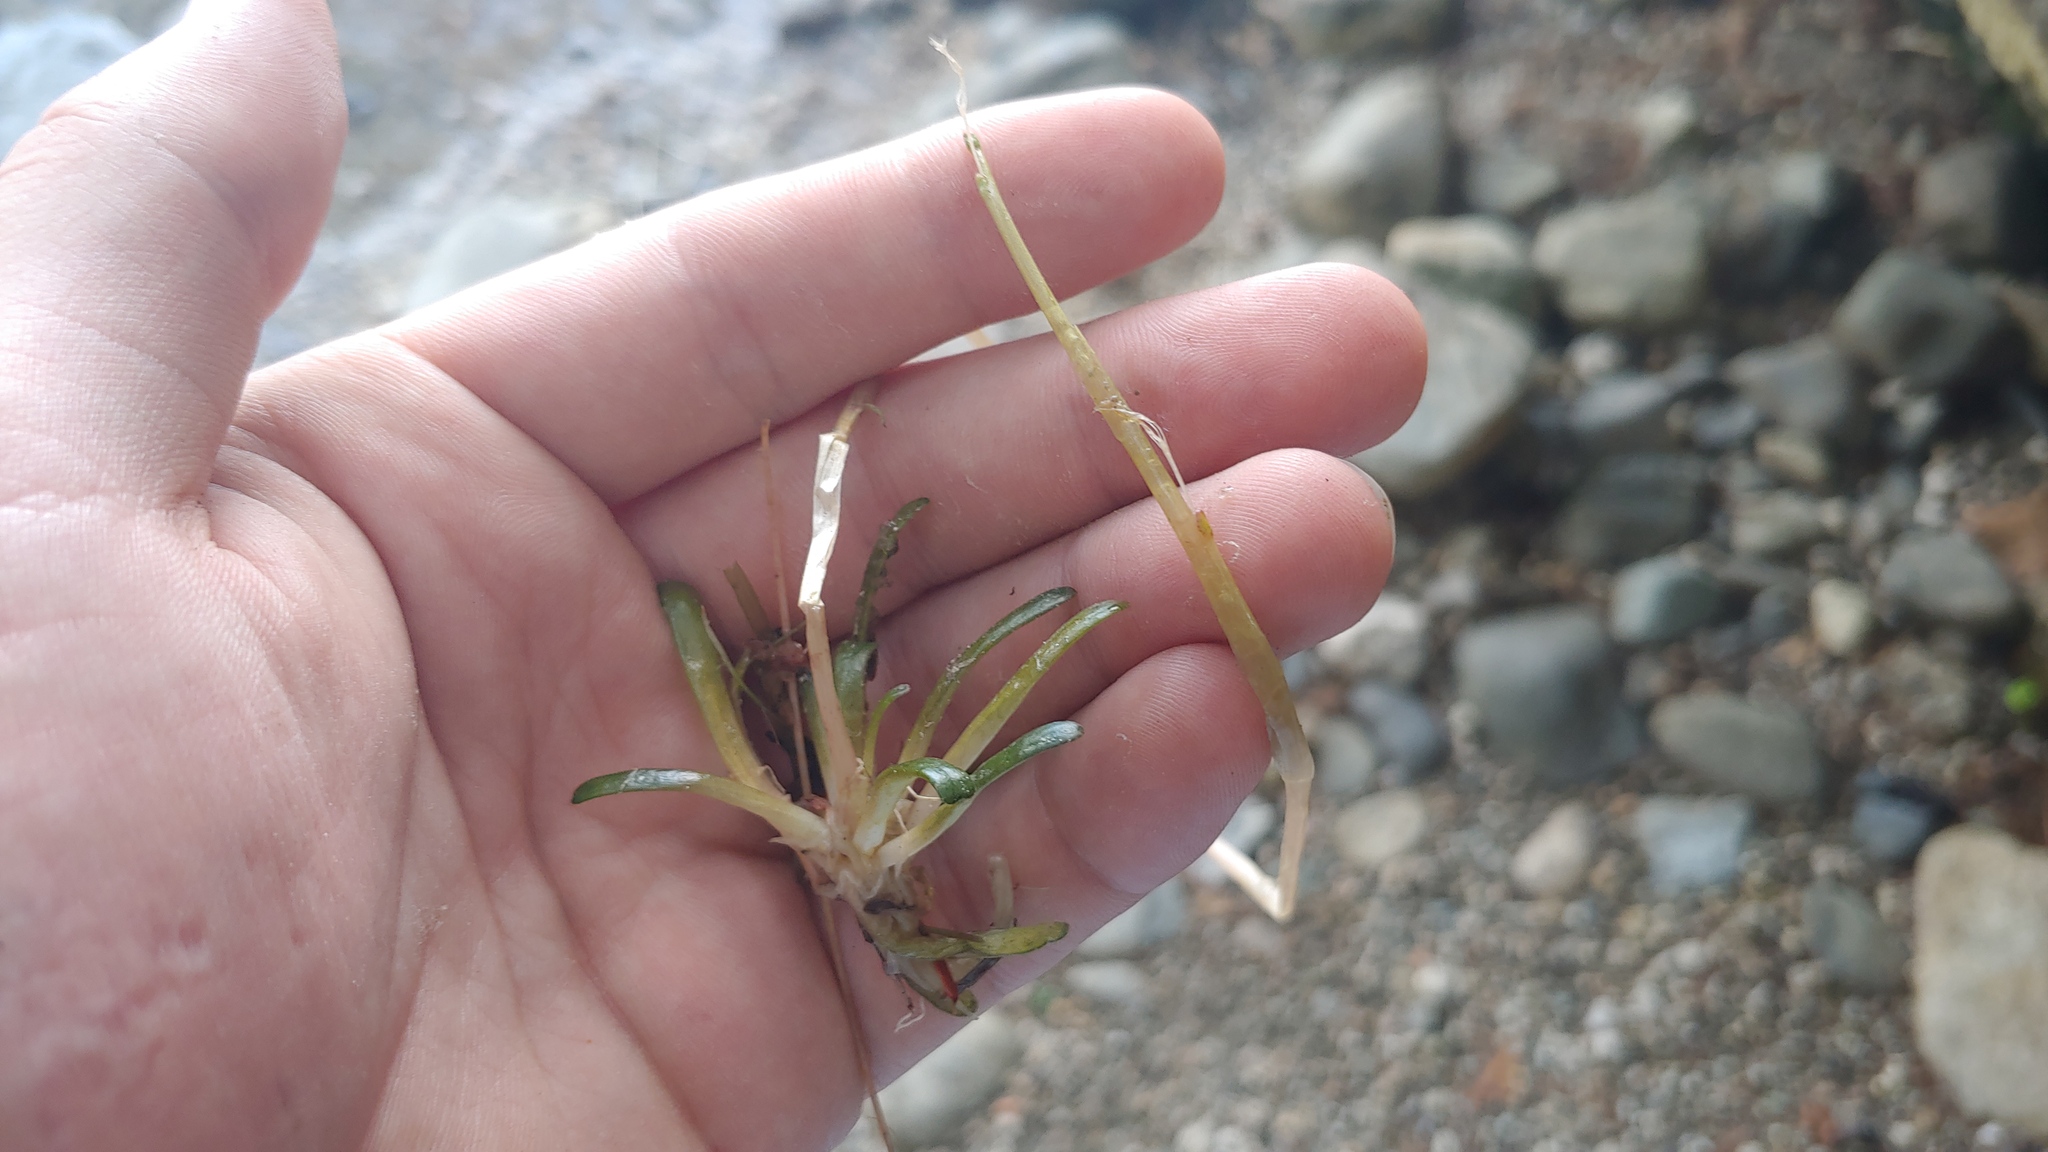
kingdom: Plantae
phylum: Tracheophyta
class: Magnoliopsida
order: Asterales
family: Campanulaceae
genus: Lobelia
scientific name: Lobelia dortmanna
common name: Water lobelia
